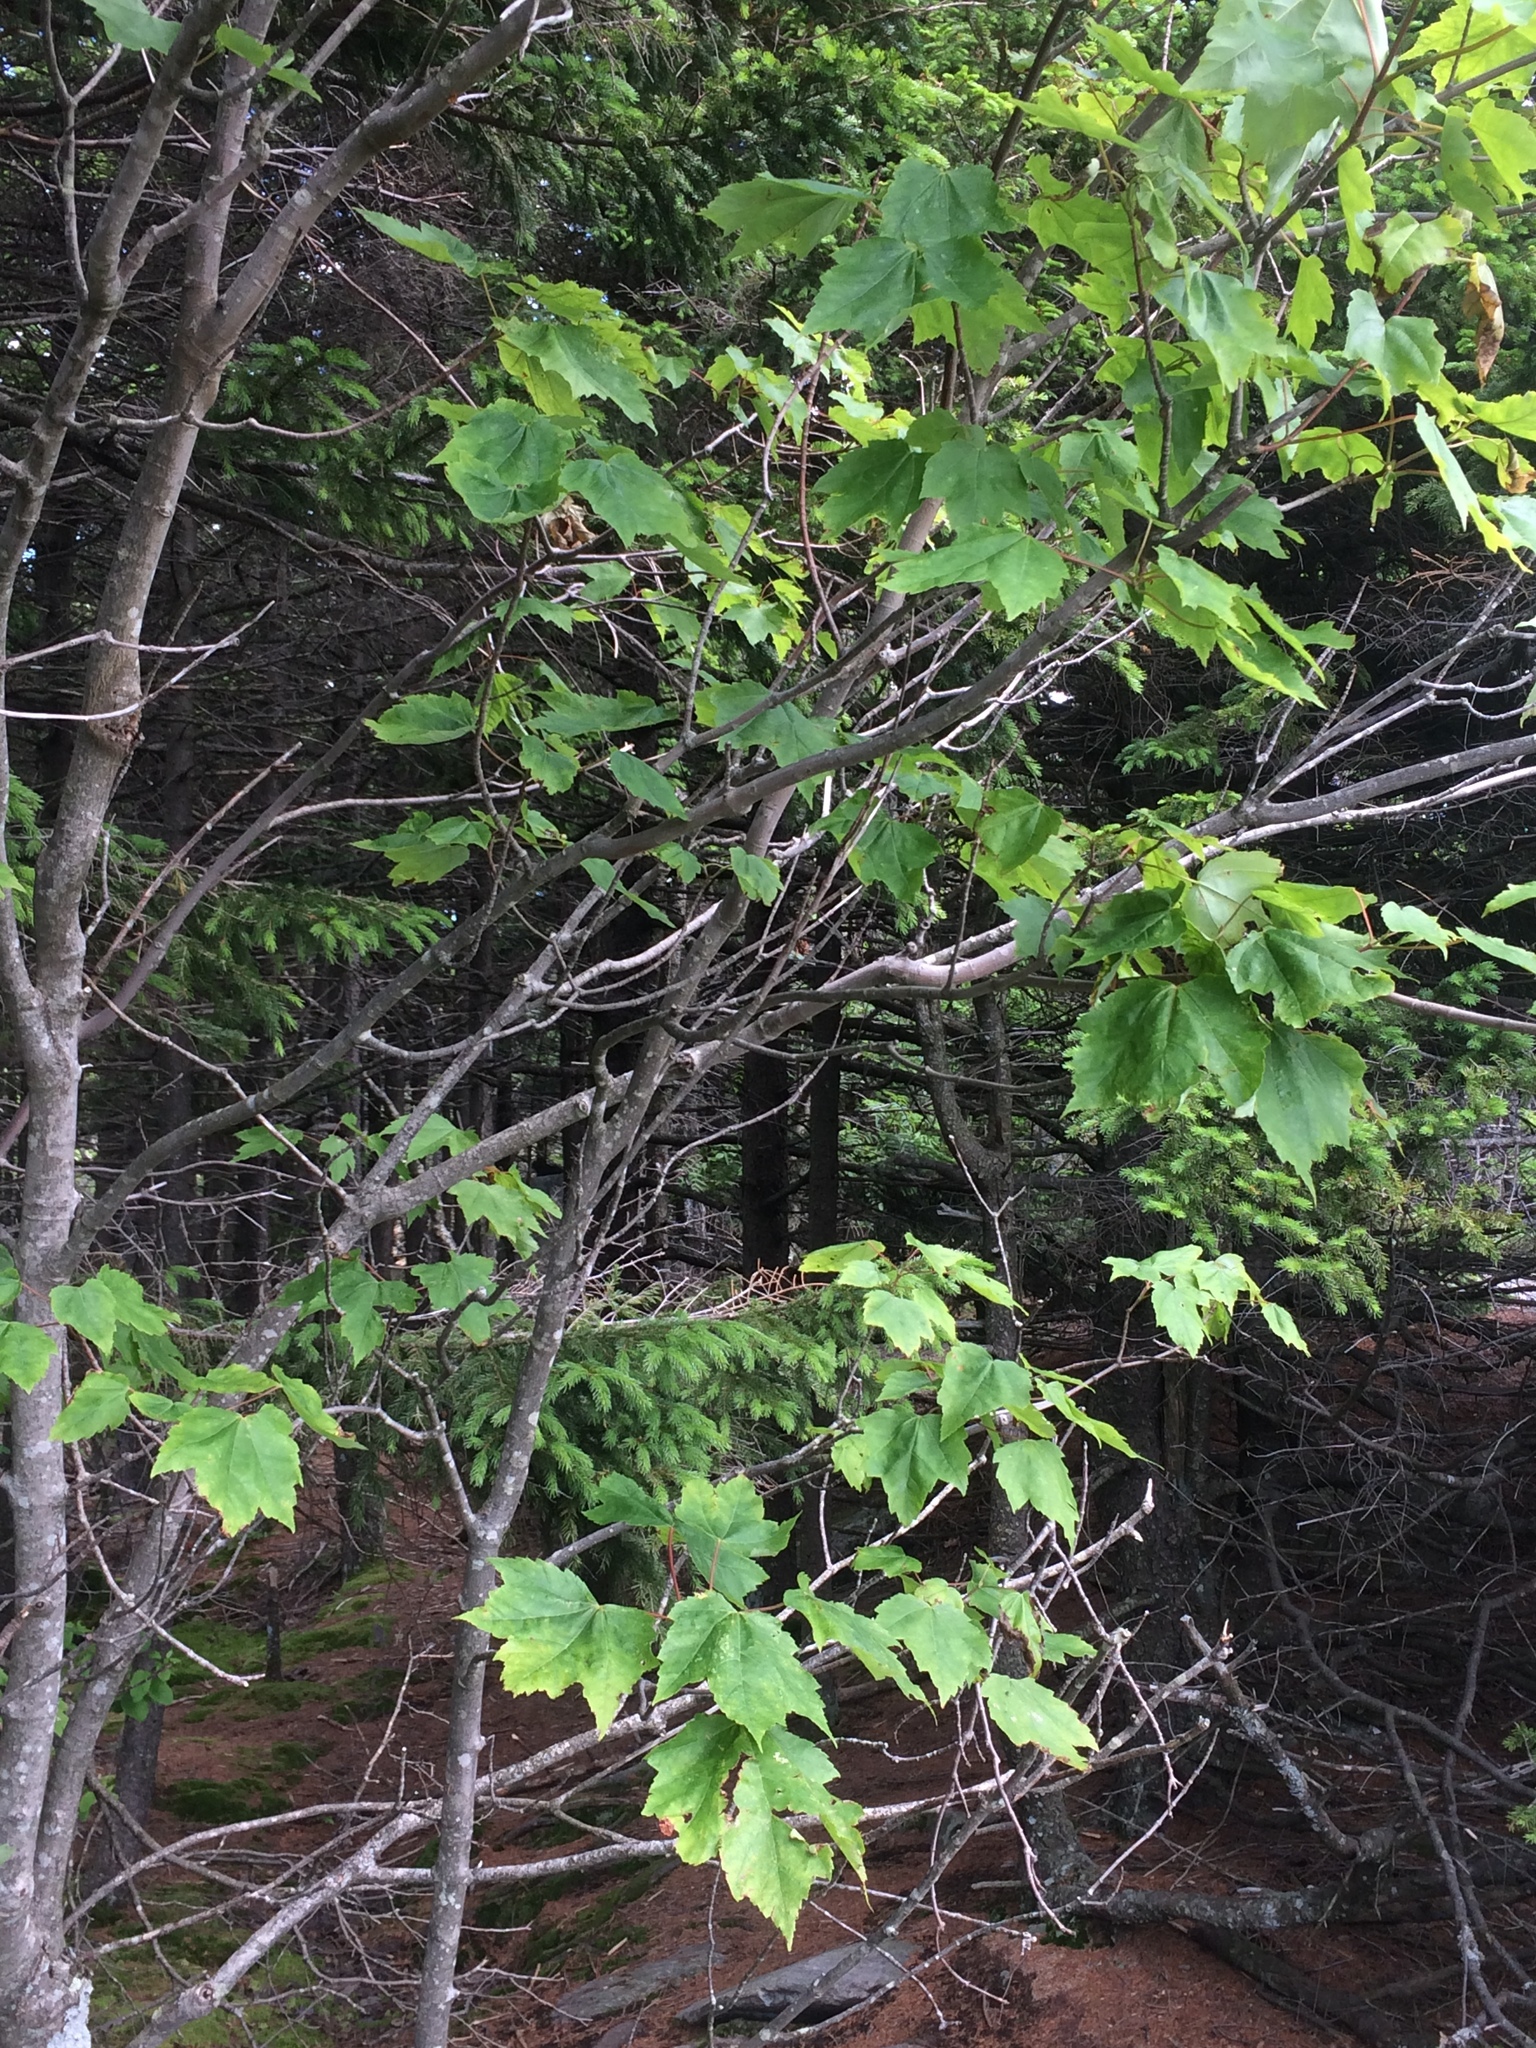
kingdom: Plantae
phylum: Tracheophyta
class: Magnoliopsida
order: Sapindales
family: Sapindaceae
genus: Acer
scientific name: Acer rubrum
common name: Red maple
